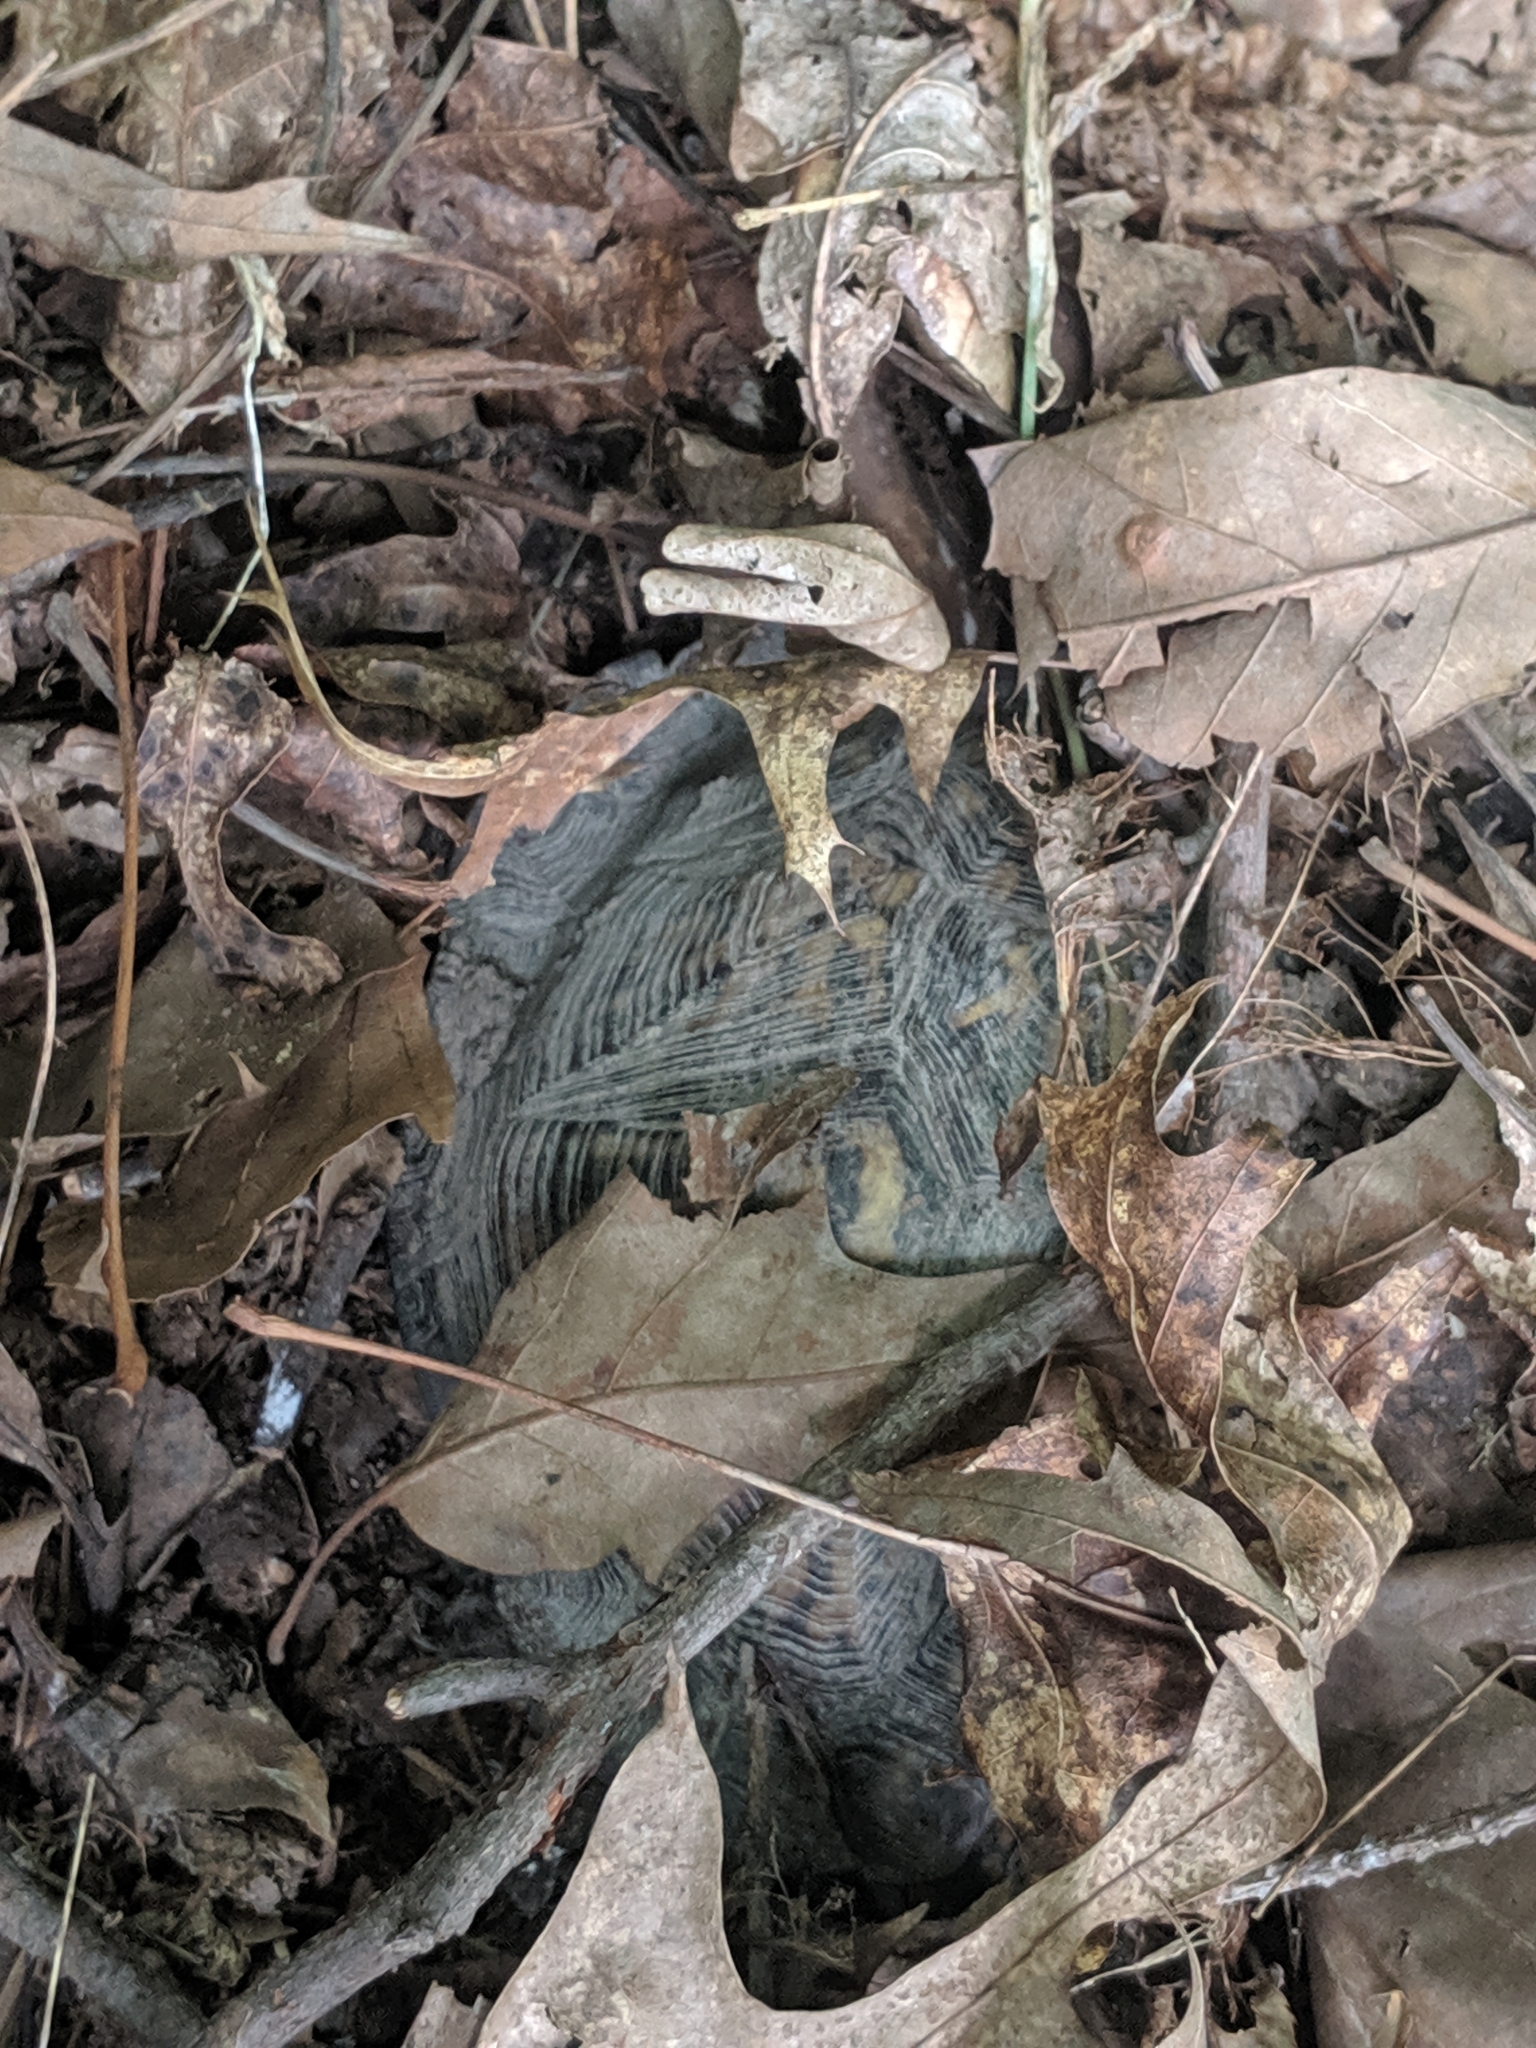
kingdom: Animalia
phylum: Chordata
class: Testudines
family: Emydidae
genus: Terrapene
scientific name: Terrapene carolina
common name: Common box turtle
